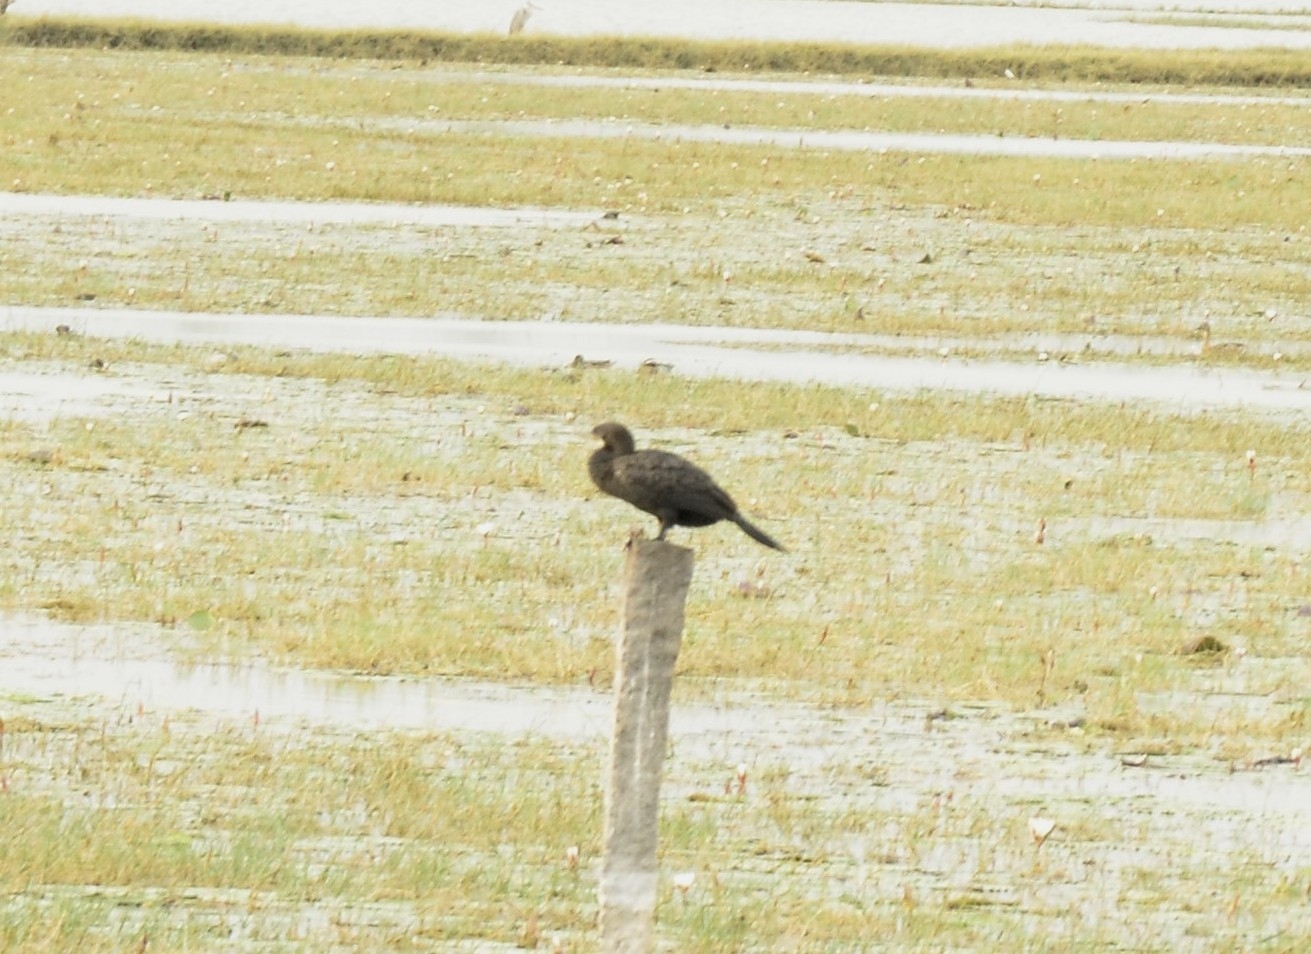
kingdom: Animalia
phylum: Chordata
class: Aves
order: Suliformes
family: Phalacrocoracidae
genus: Microcarbo
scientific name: Microcarbo niger
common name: Little cormorant
